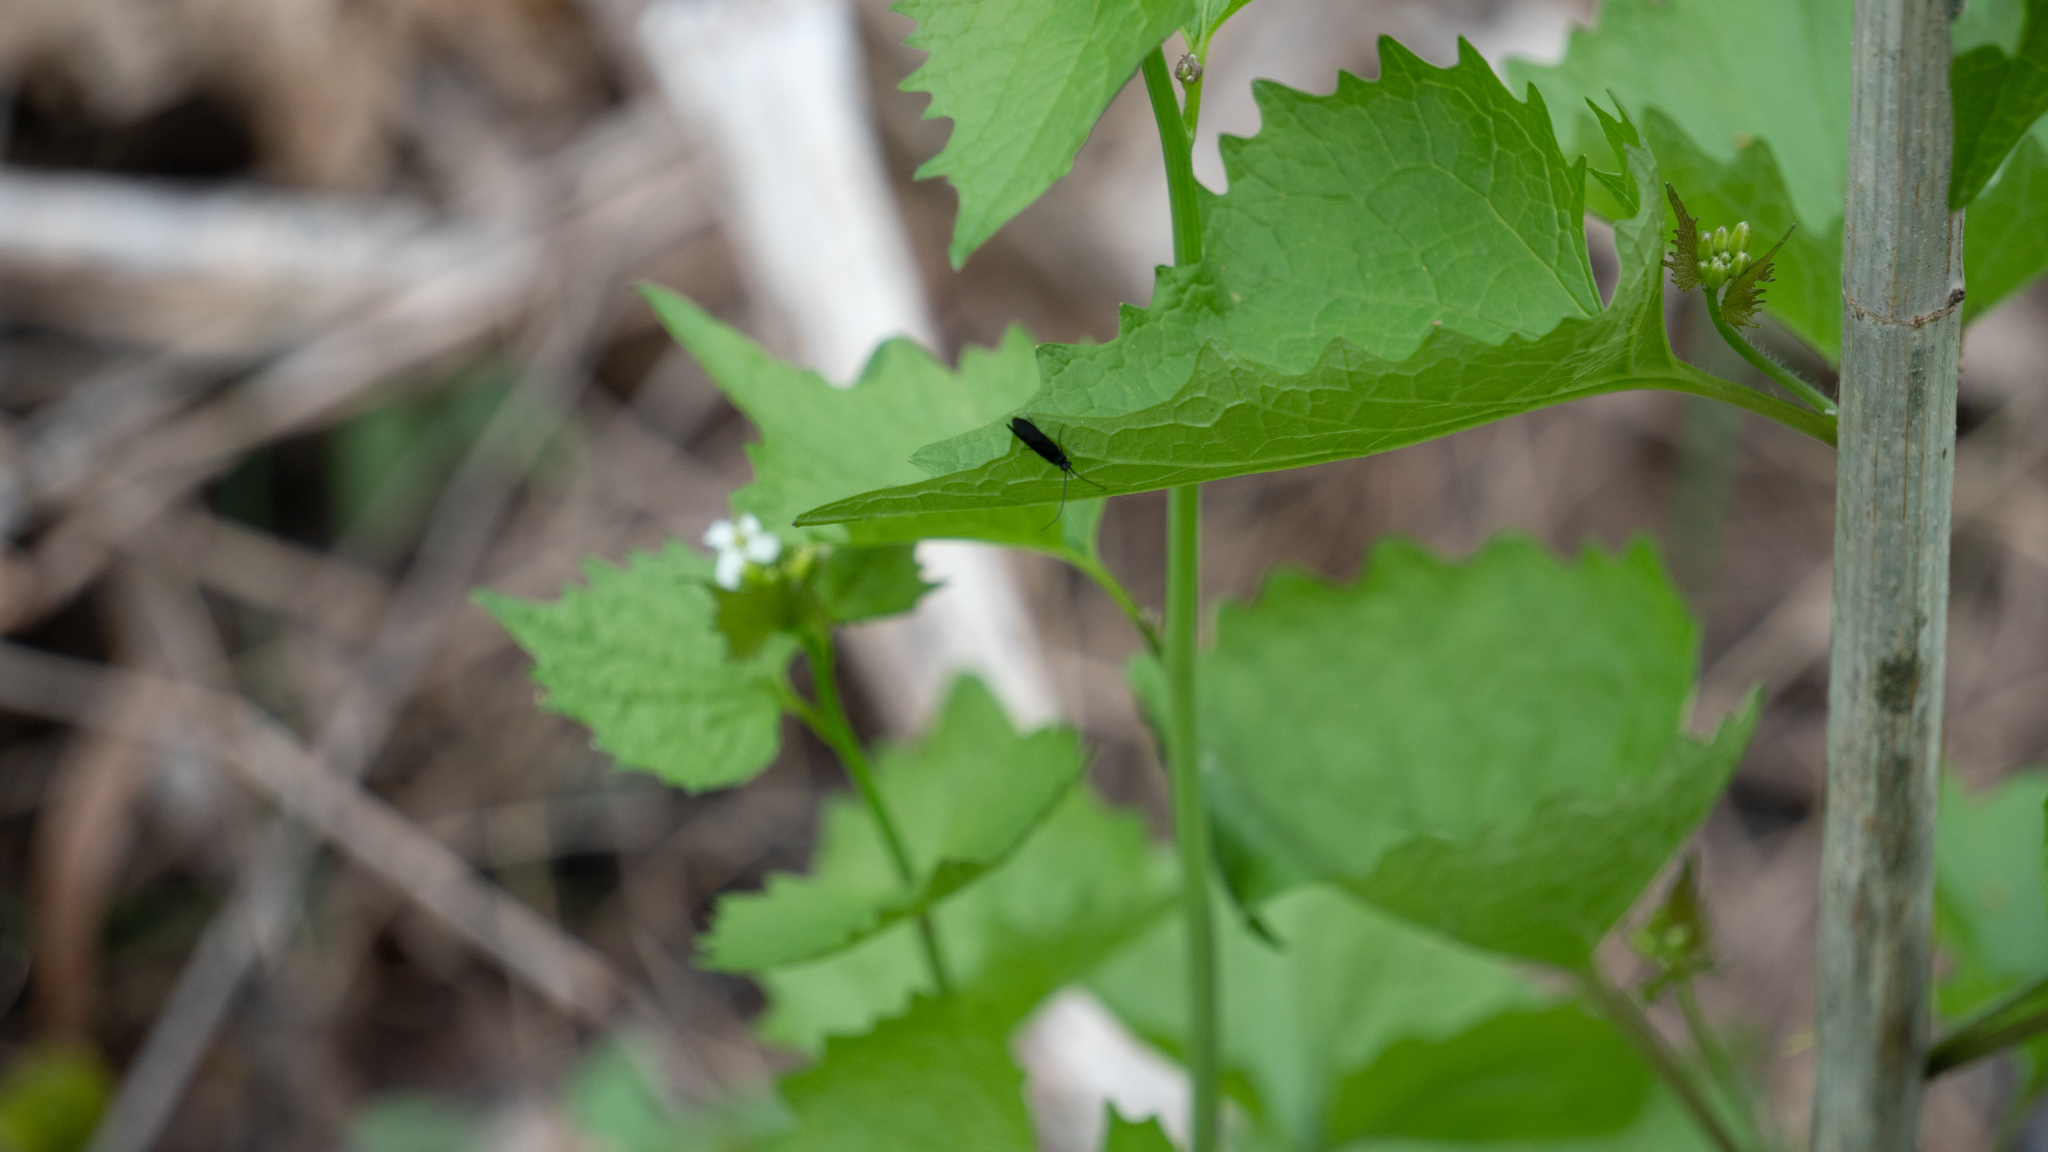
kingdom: Plantae
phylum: Tracheophyta
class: Magnoliopsida
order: Brassicales
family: Brassicaceae
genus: Alliaria
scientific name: Alliaria petiolata
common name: Garlic mustard
